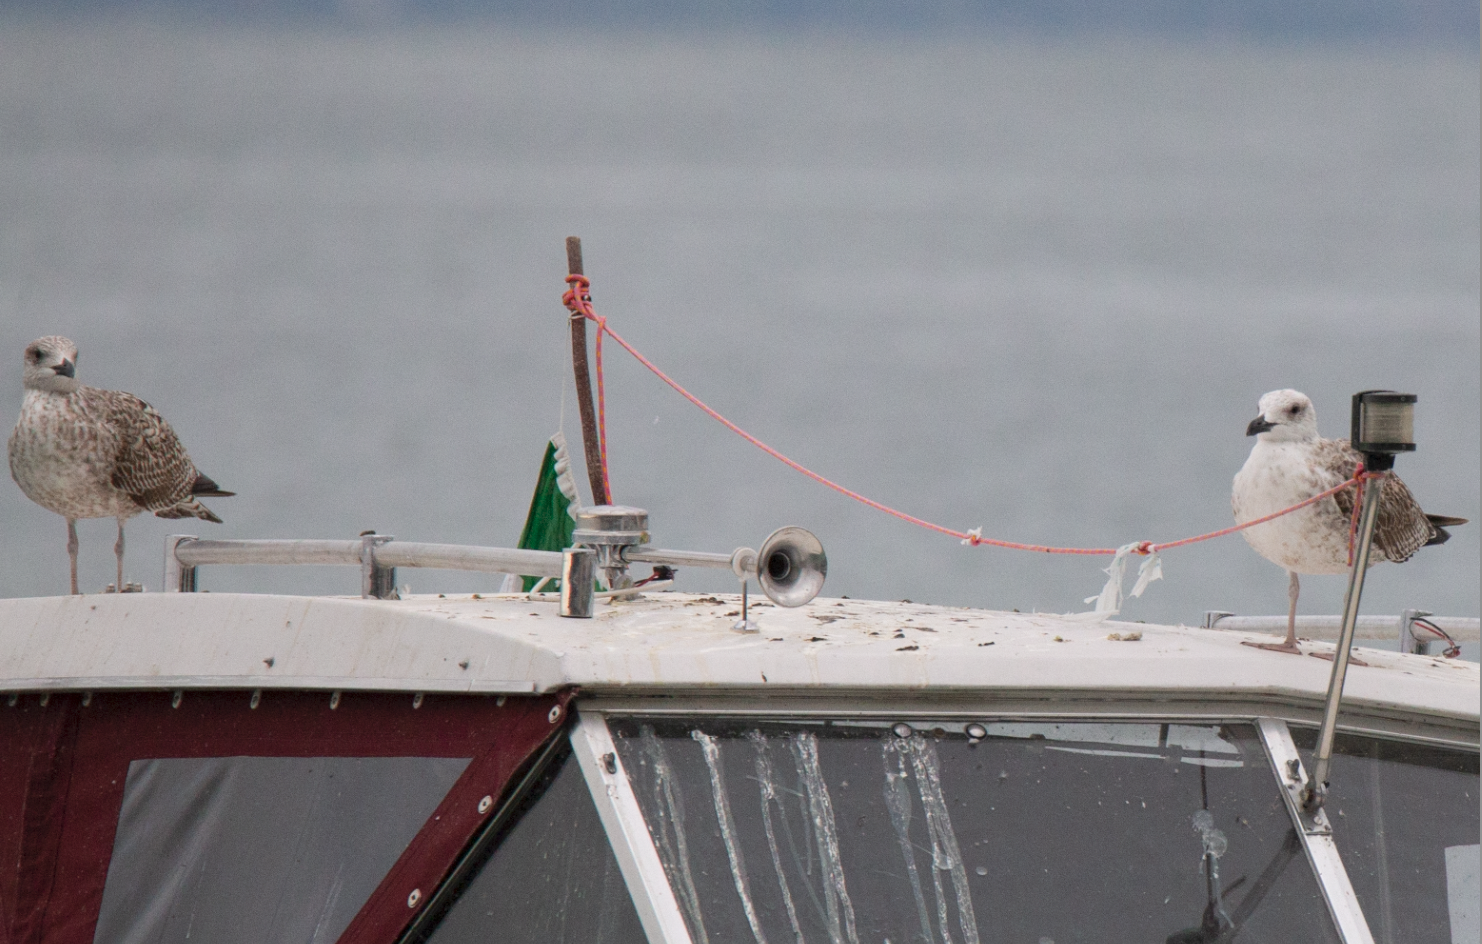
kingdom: Animalia
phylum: Chordata
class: Aves
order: Charadriiformes
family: Laridae
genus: Larus
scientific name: Larus michahellis
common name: Yellow-legged gull
